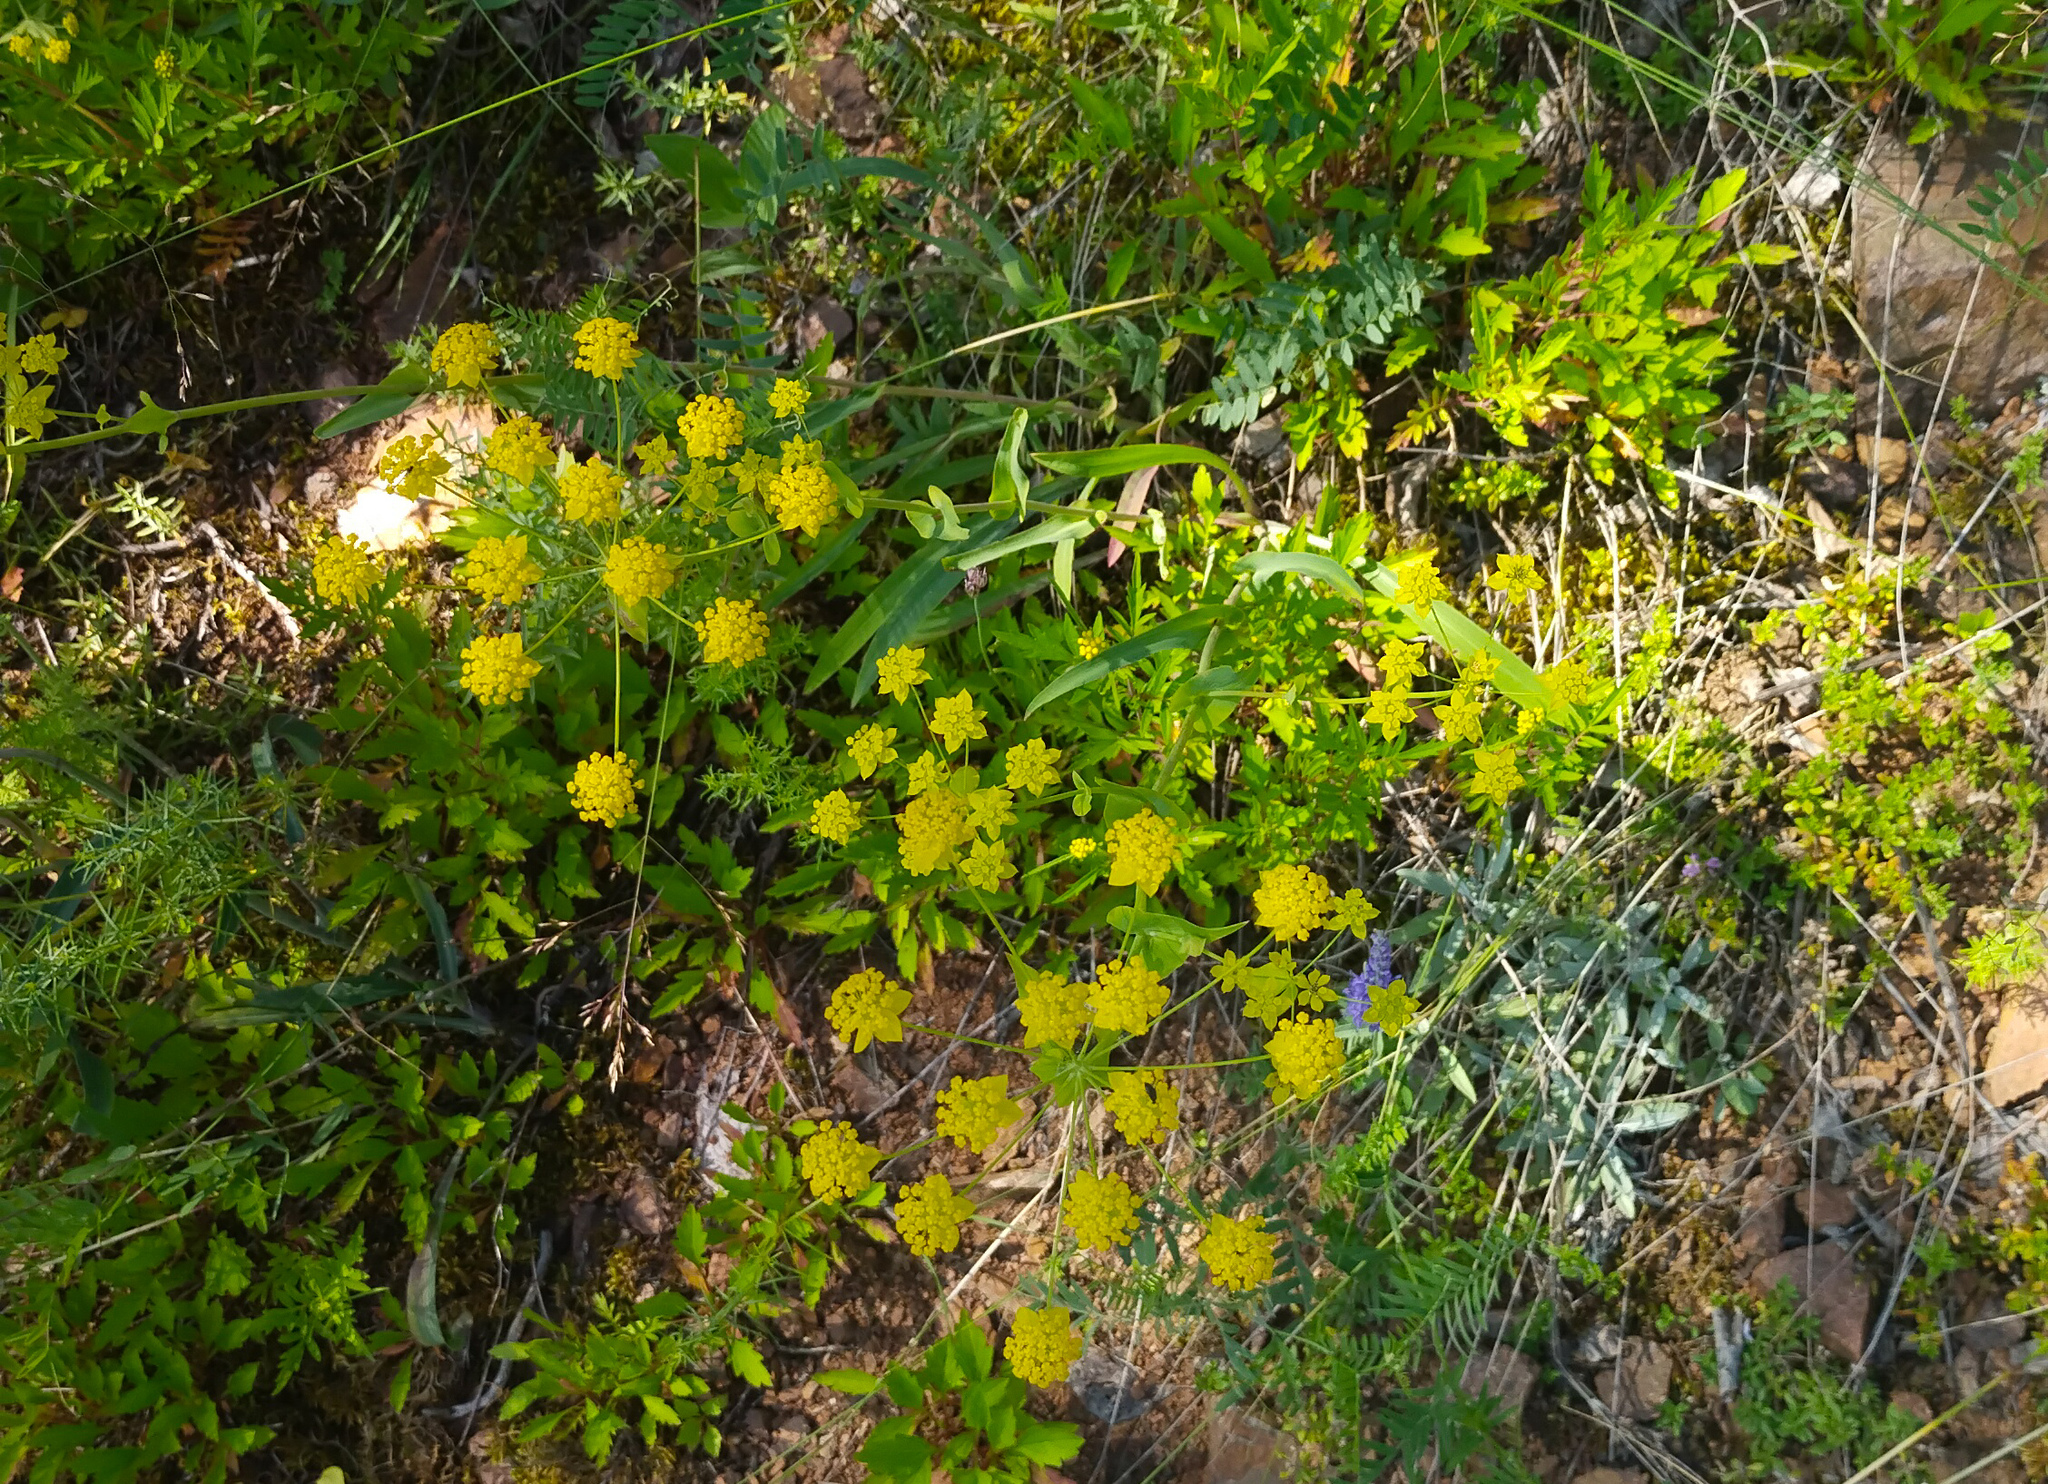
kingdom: Plantae
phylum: Tracheophyta
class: Magnoliopsida
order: Apiales
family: Apiaceae
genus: Bupleurum
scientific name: Bupleurum multinerve
